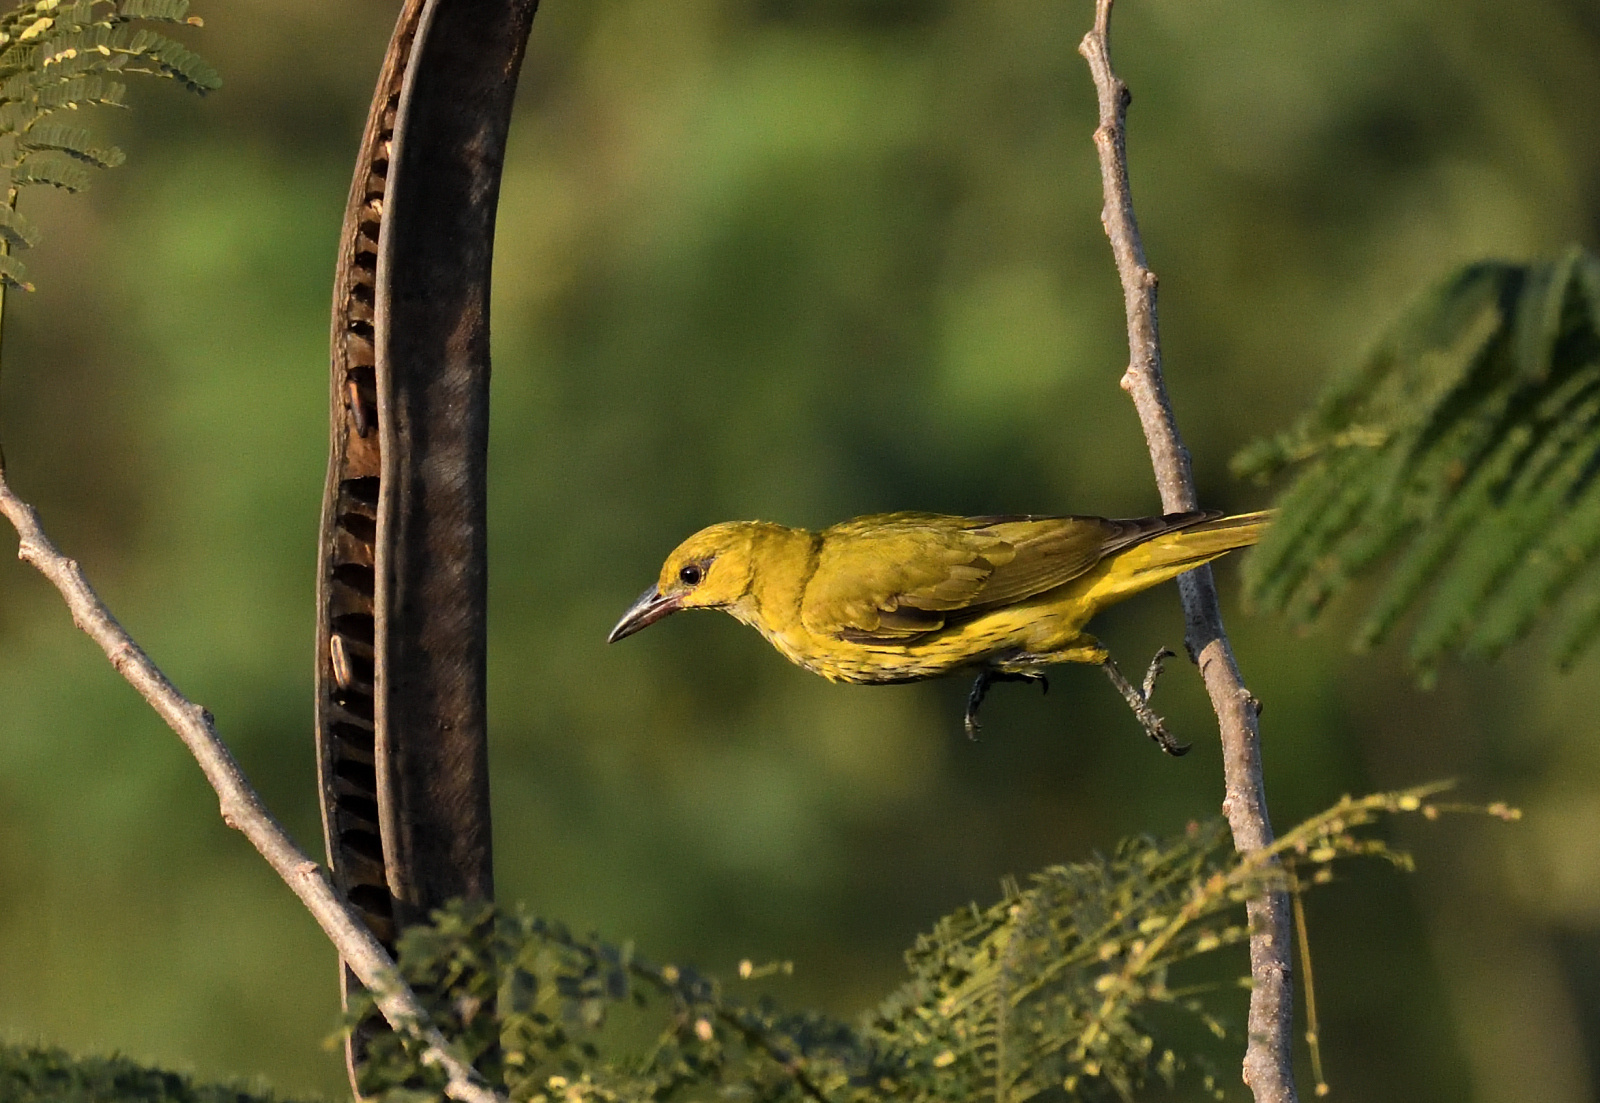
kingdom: Animalia
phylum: Chordata
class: Aves
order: Passeriformes
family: Oriolidae
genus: Oriolus
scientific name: Oriolus kundoo
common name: Indian golden oriole
